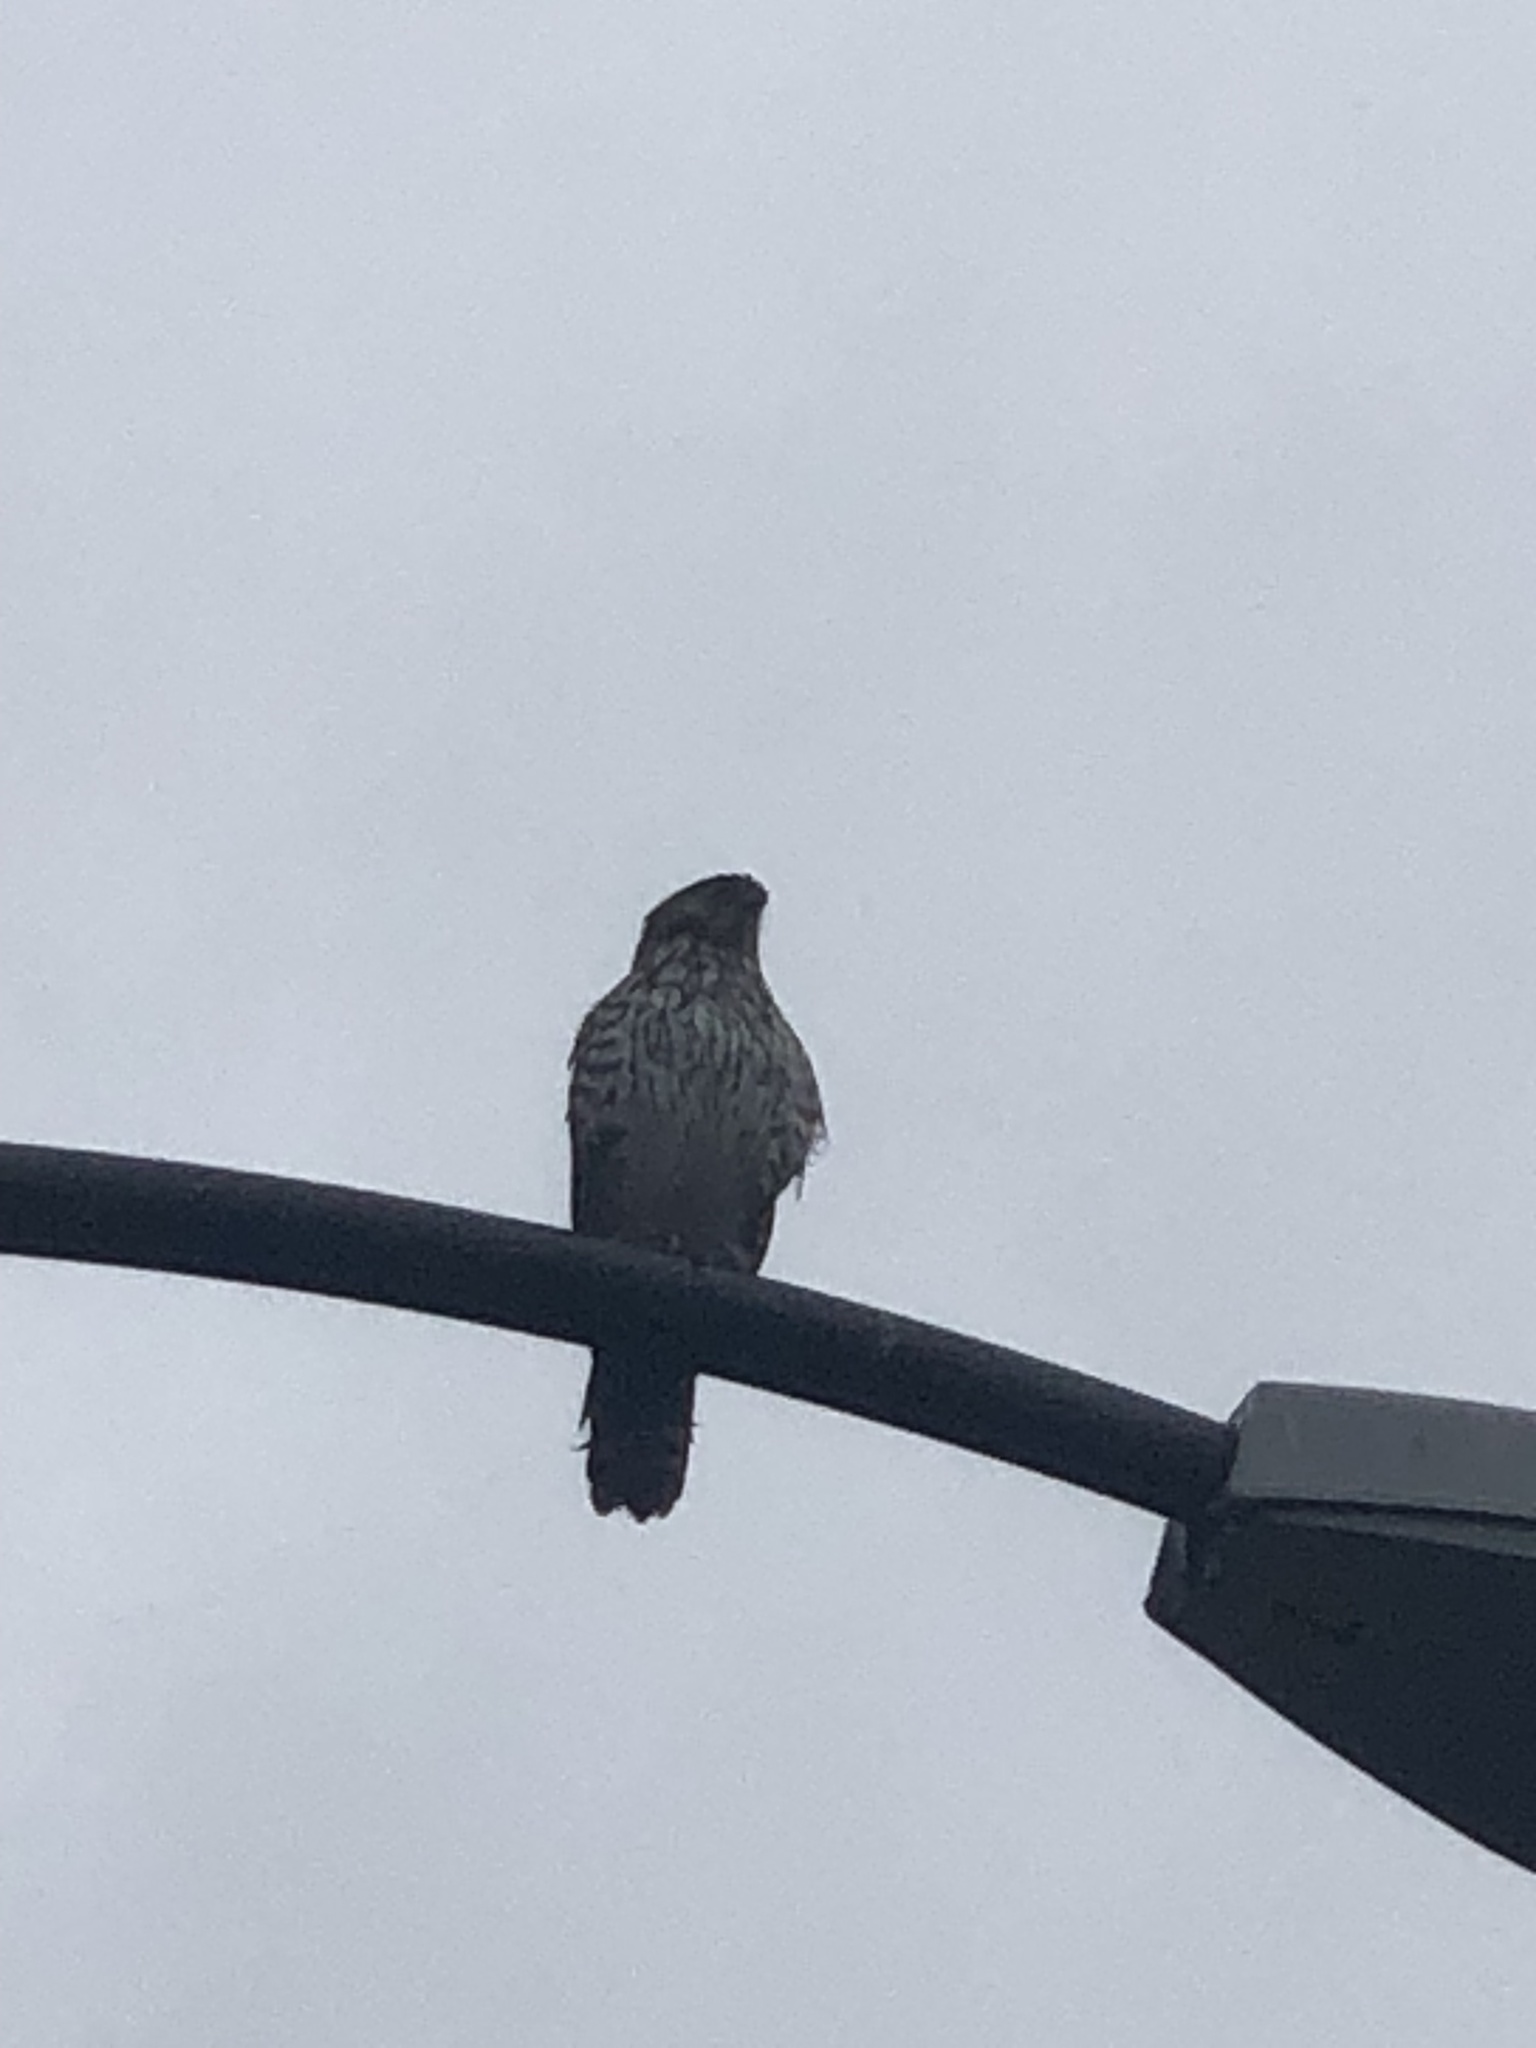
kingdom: Animalia
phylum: Chordata
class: Aves
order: Accipitriformes
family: Accipitridae
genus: Accipiter
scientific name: Accipiter cooperii
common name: Cooper's hawk
